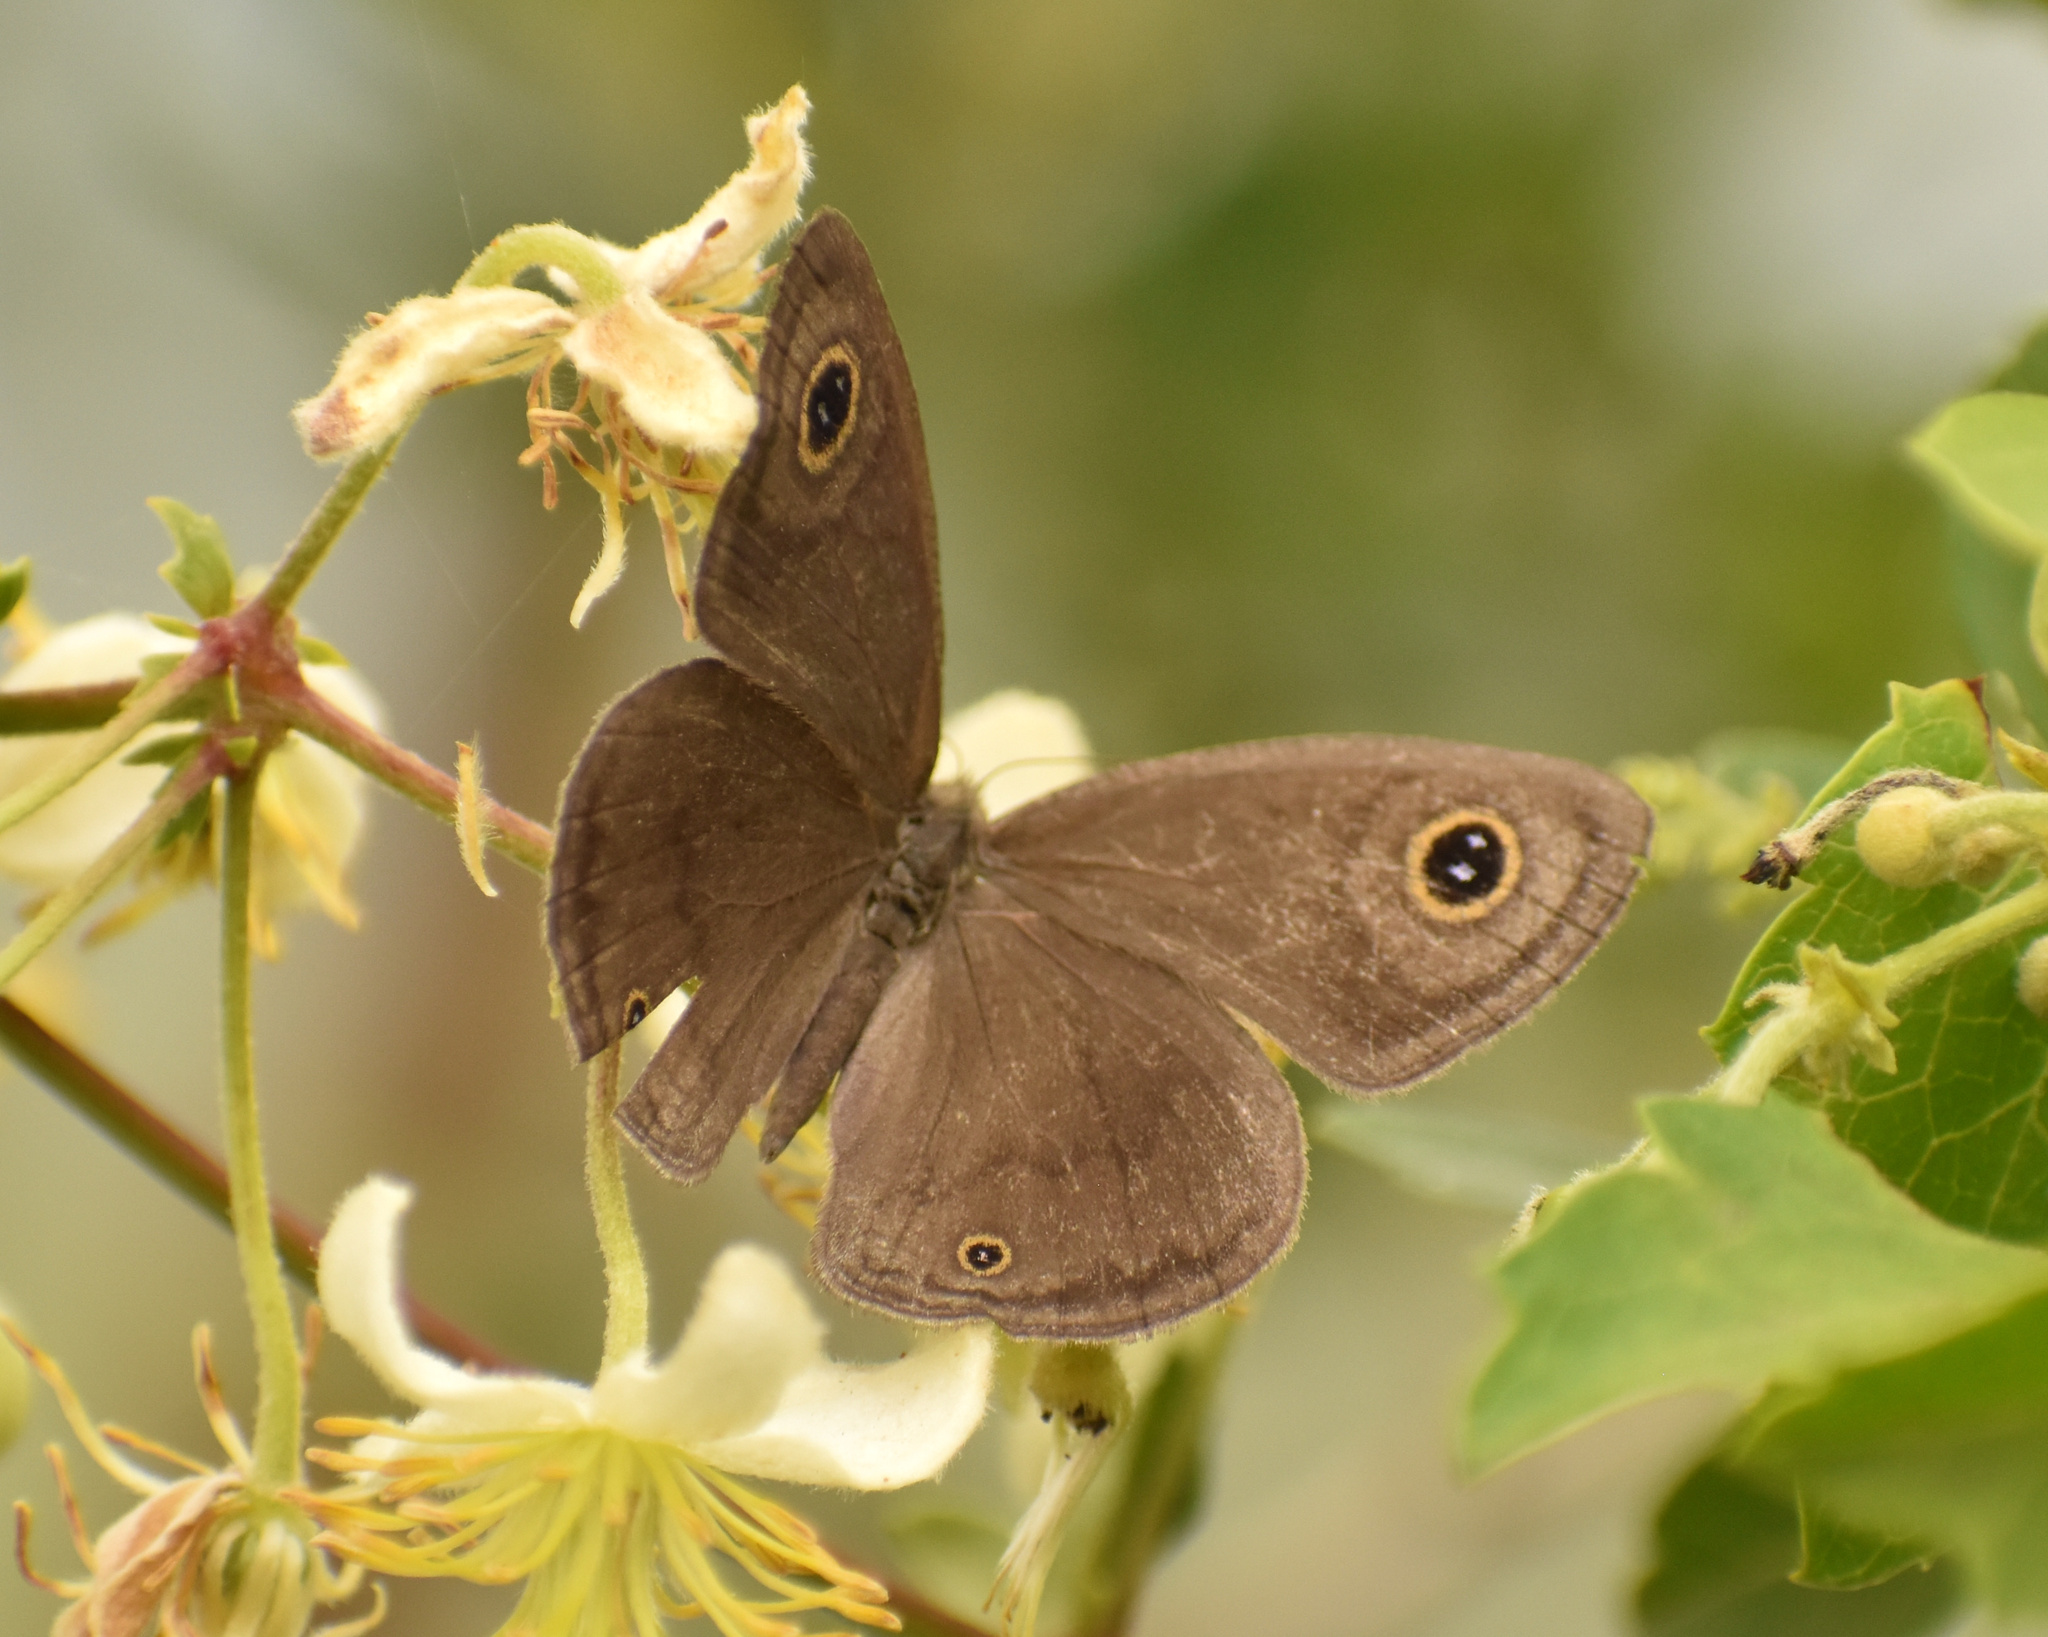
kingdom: Animalia
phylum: Arthropoda
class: Insecta
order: Lepidoptera
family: Nymphalidae
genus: Ypthima
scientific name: Ypthima asterope
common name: African ringlet
